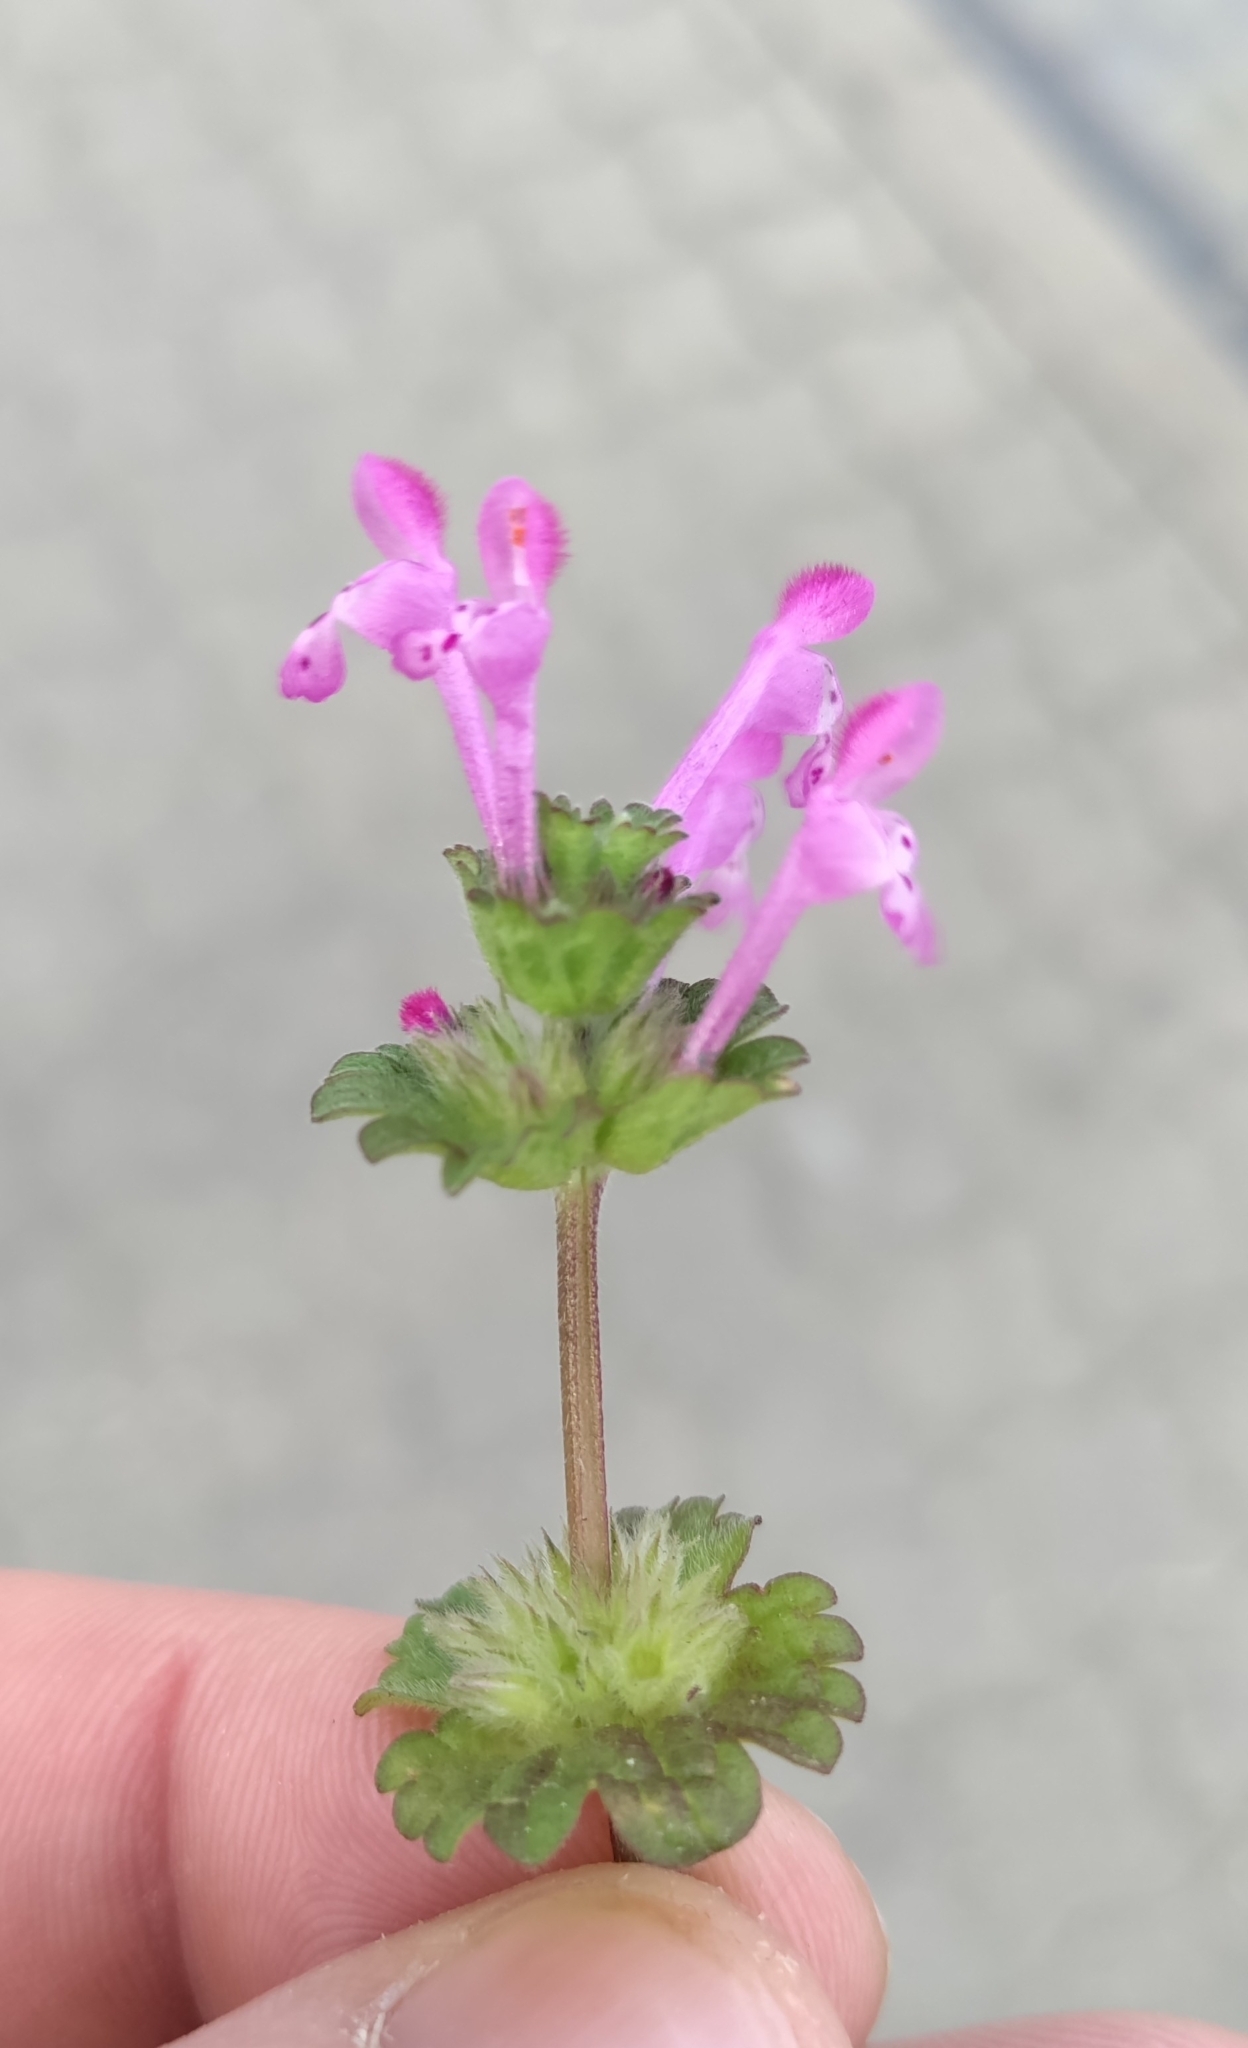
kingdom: Plantae
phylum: Tracheophyta
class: Magnoliopsida
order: Lamiales
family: Lamiaceae
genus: Lamium
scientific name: Lamium amplexicaule
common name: Henbit dead-nettle
